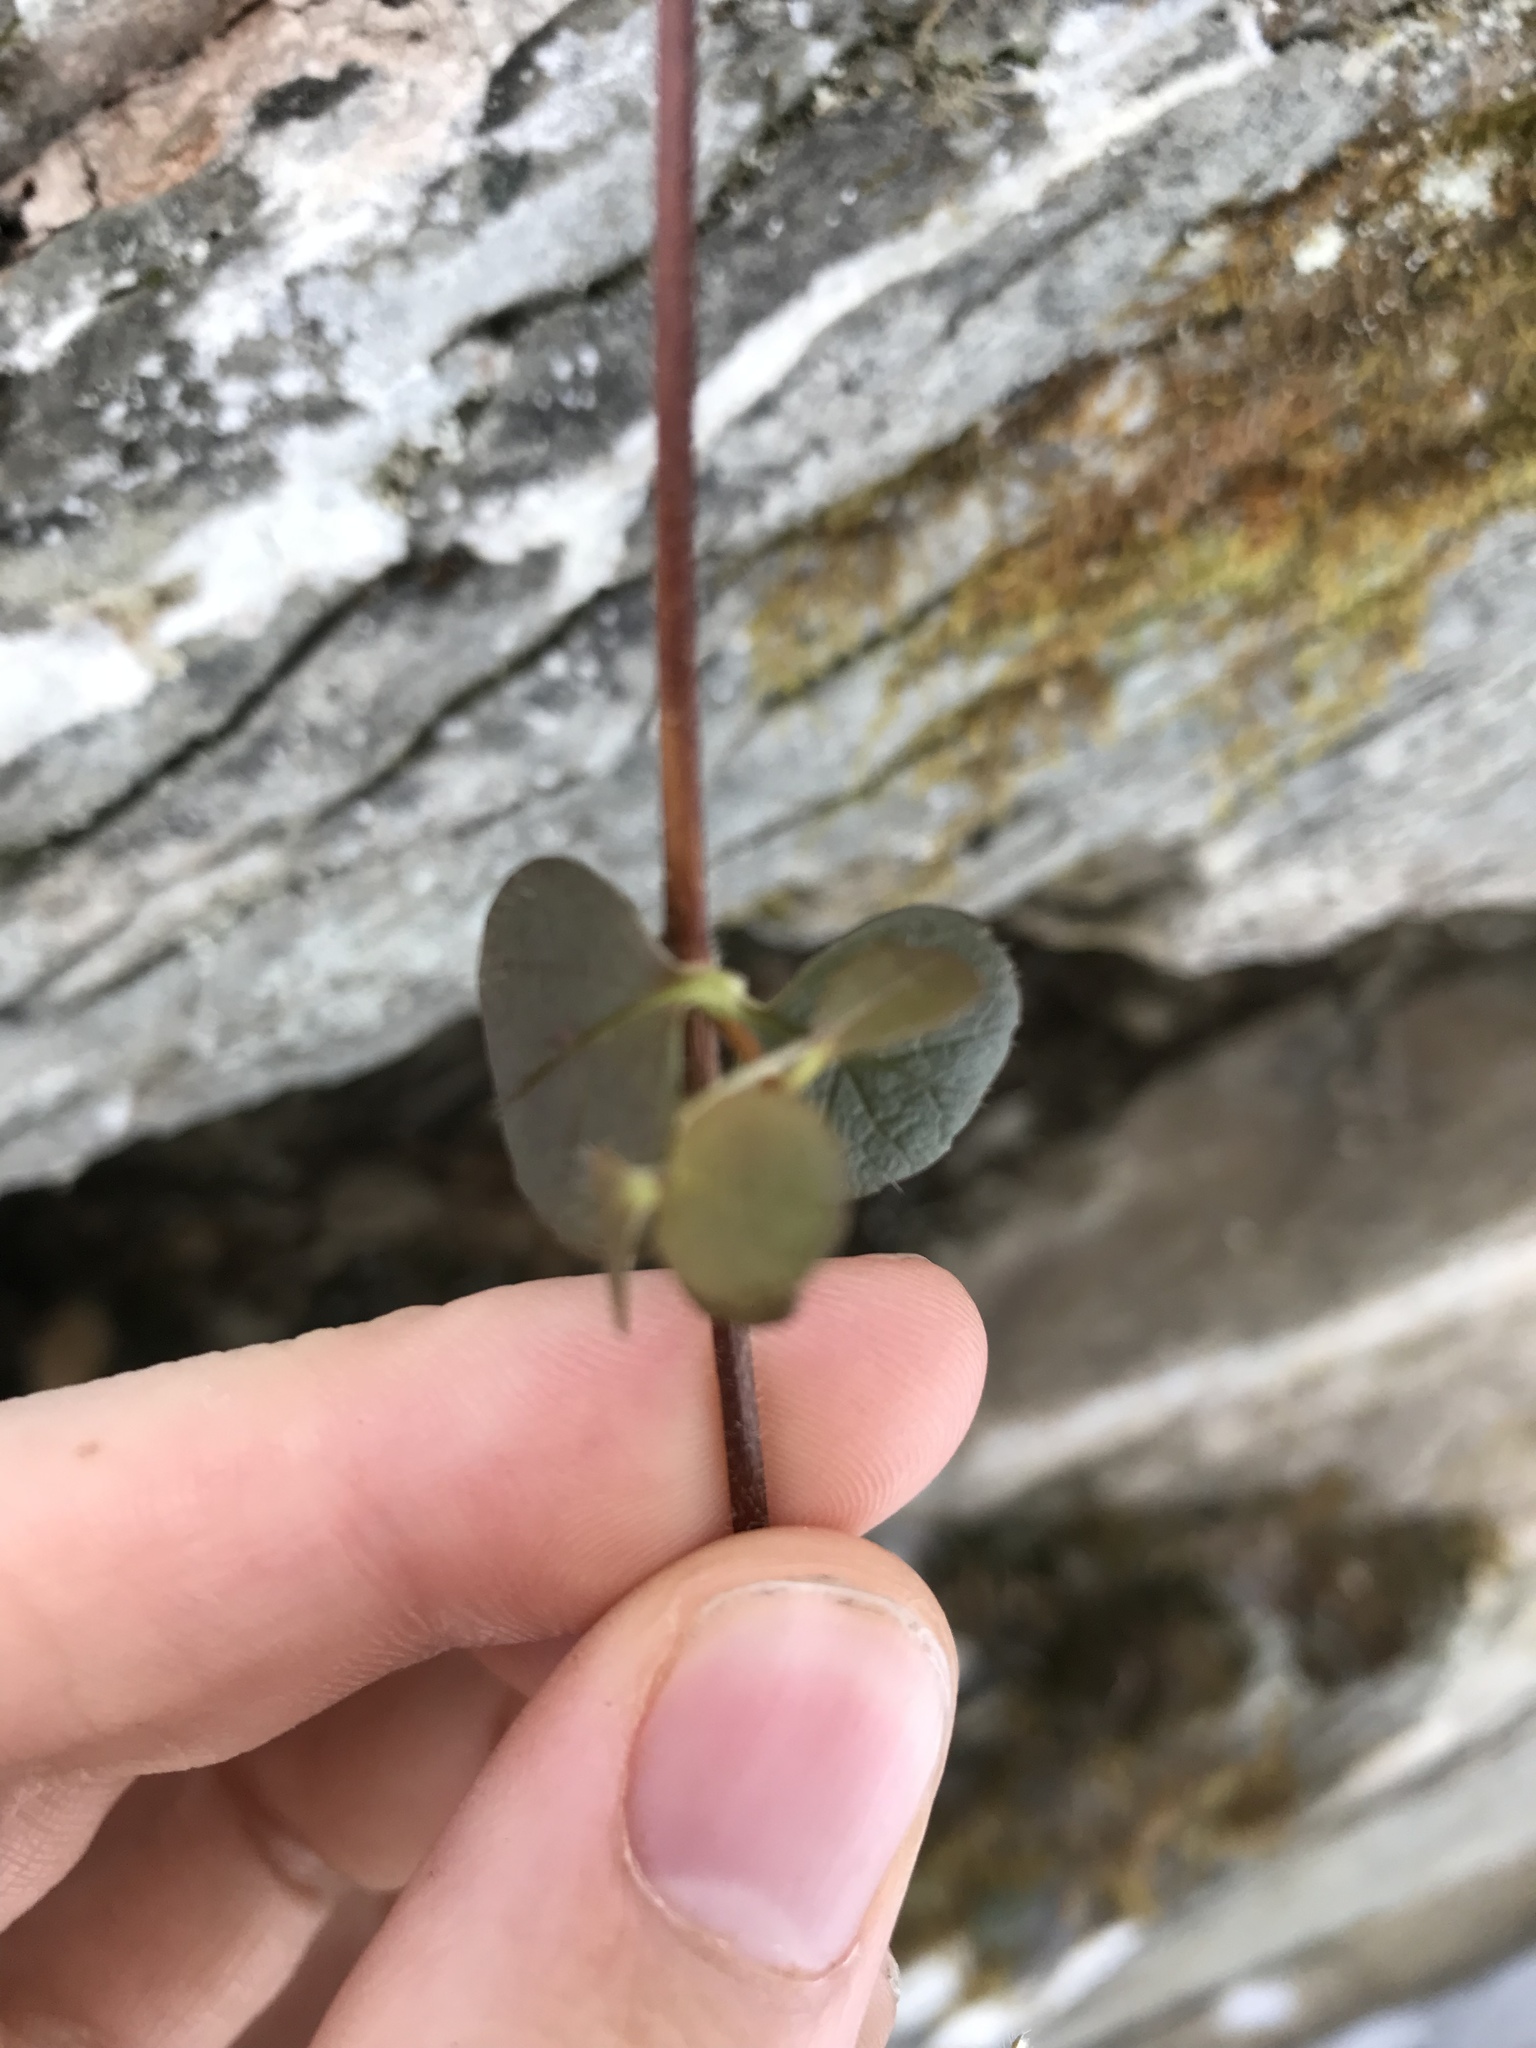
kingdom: Plantae
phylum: Tracheophyta
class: Magnoliopsida
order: Dipsacales
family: Caprifoliaceae
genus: Linnaea
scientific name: Linnaea borealis
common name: Twinflower
